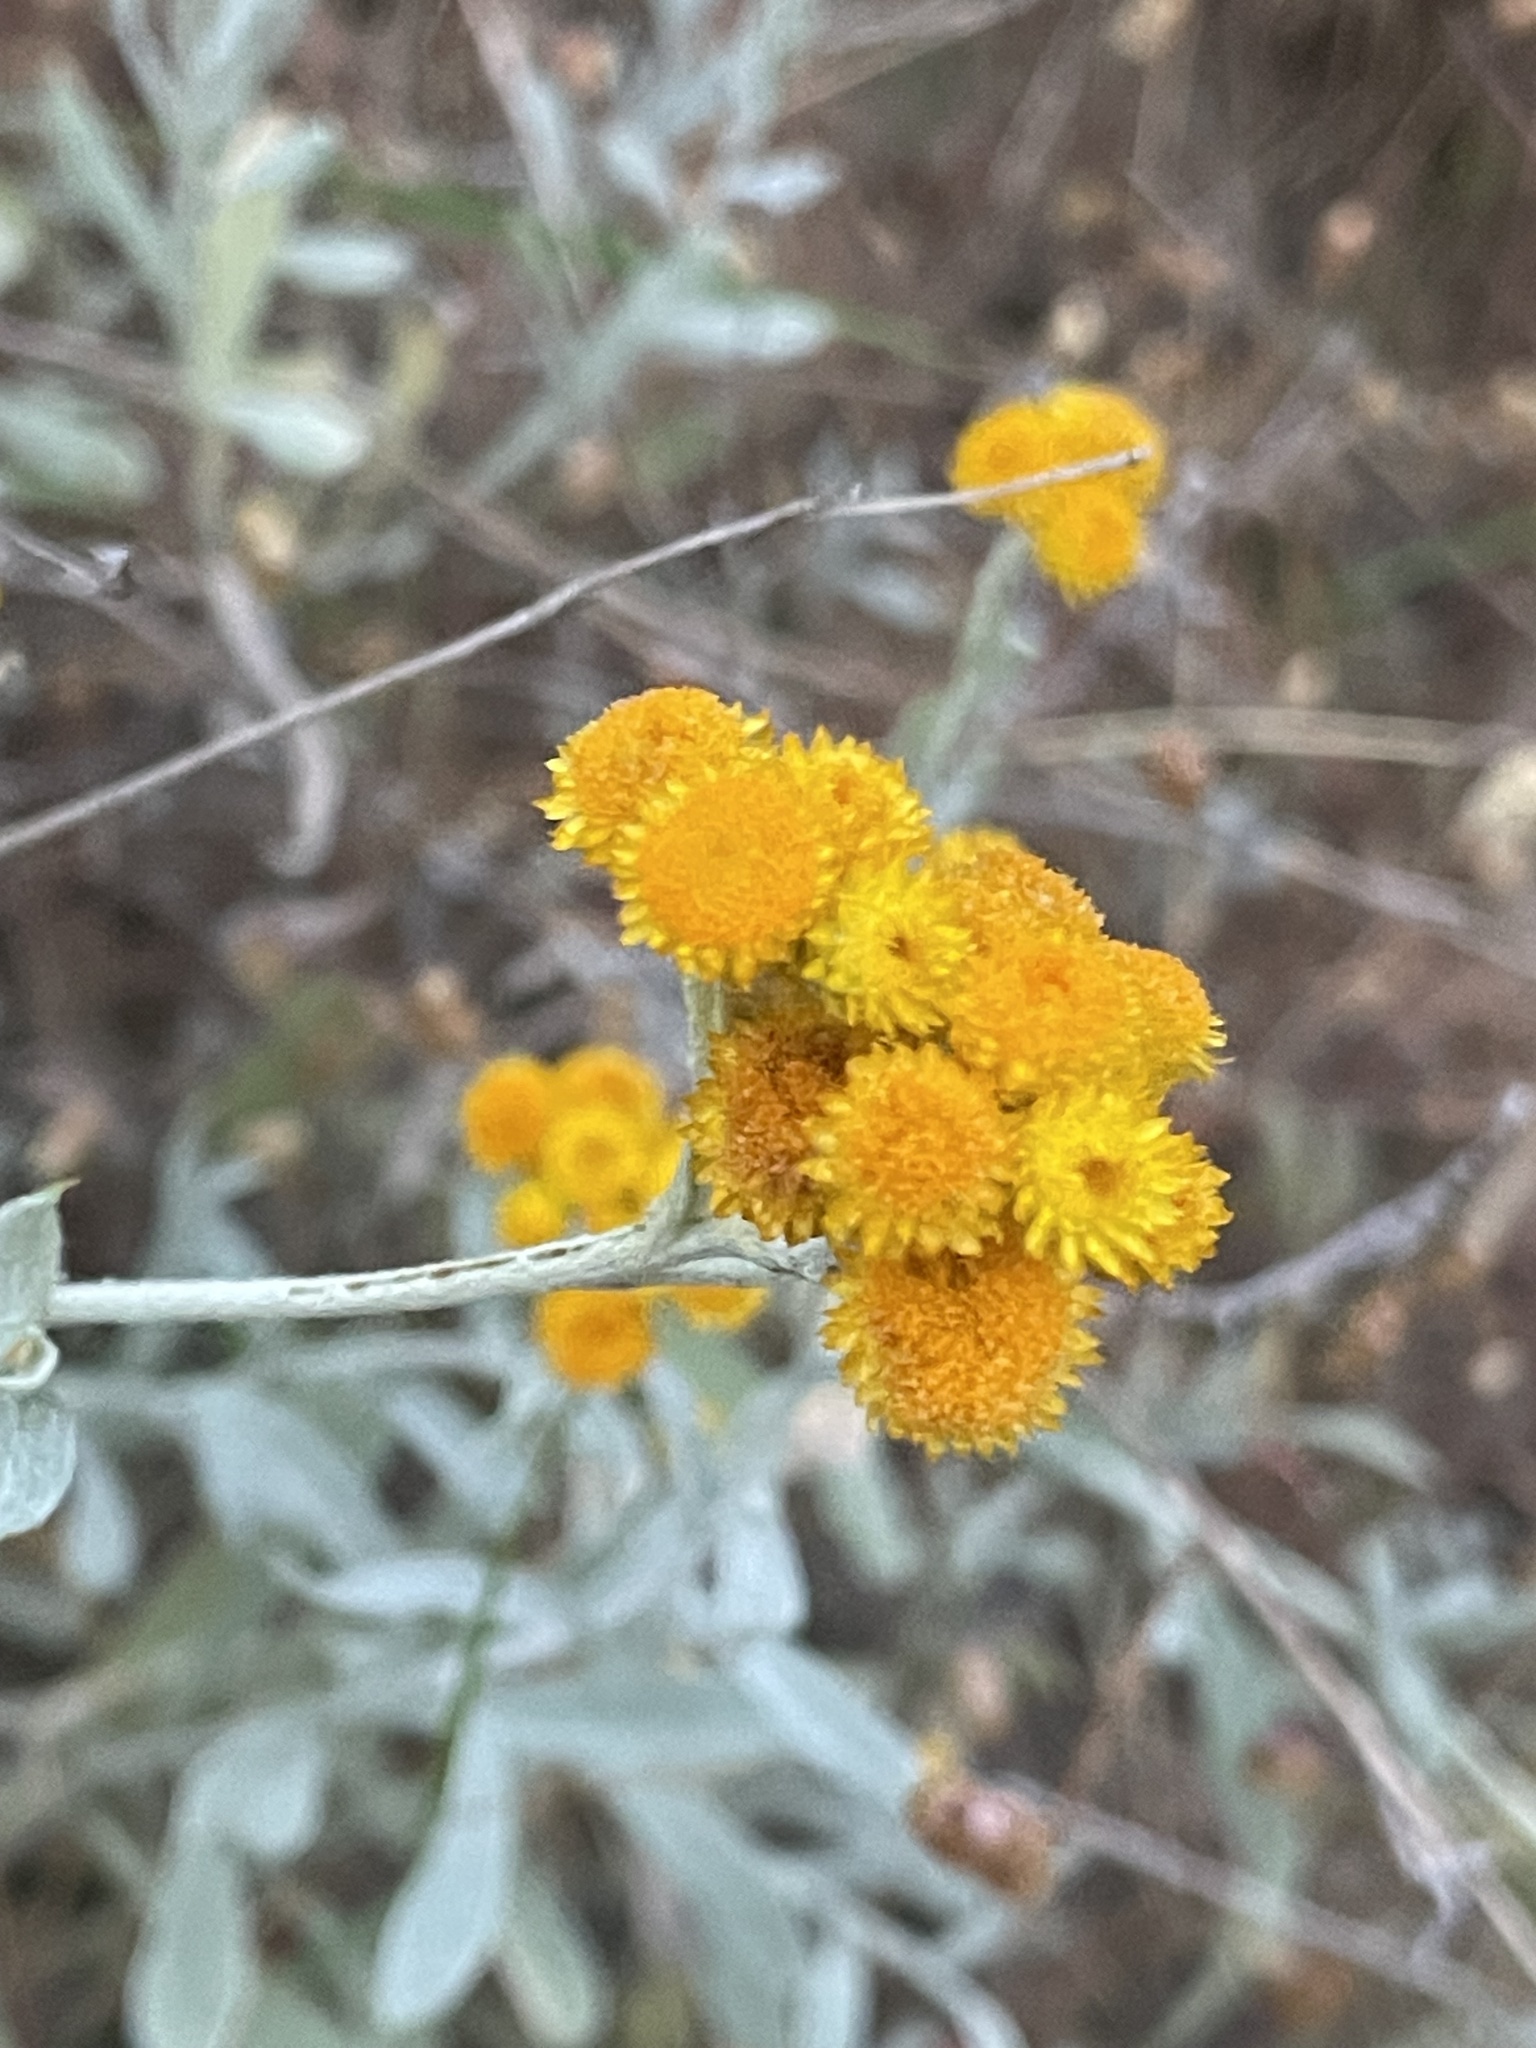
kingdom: Plantae
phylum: Tracheophyta
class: Magnoliopsida
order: Asterales
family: Asteraceae
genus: Chrysocephalum
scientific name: Chrysocephalum apiculatum
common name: Common everlasting
